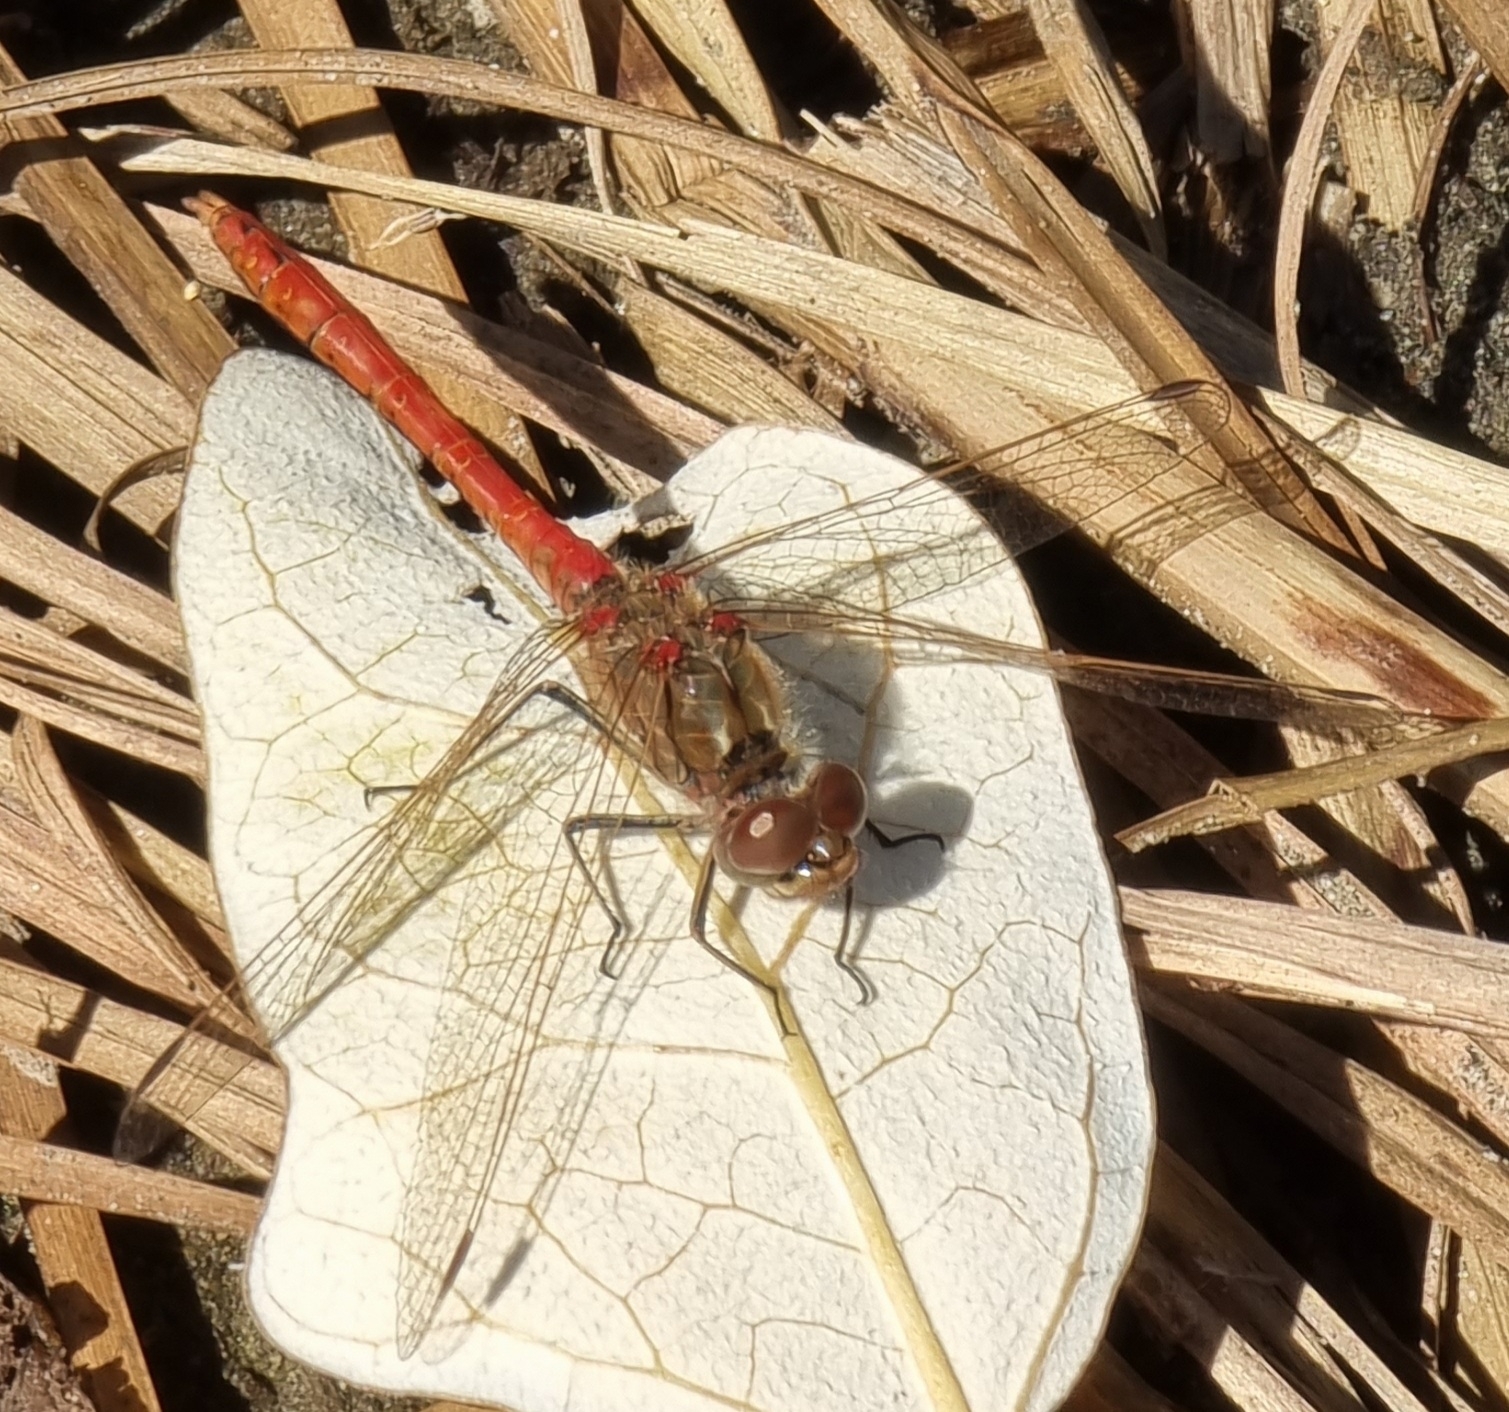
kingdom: Animalia
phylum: Arthropoda
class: Insecta
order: Odonata
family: Libellulidae
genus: Sympetrum
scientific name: Sympetrum vulgatum
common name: Vagrant darter
